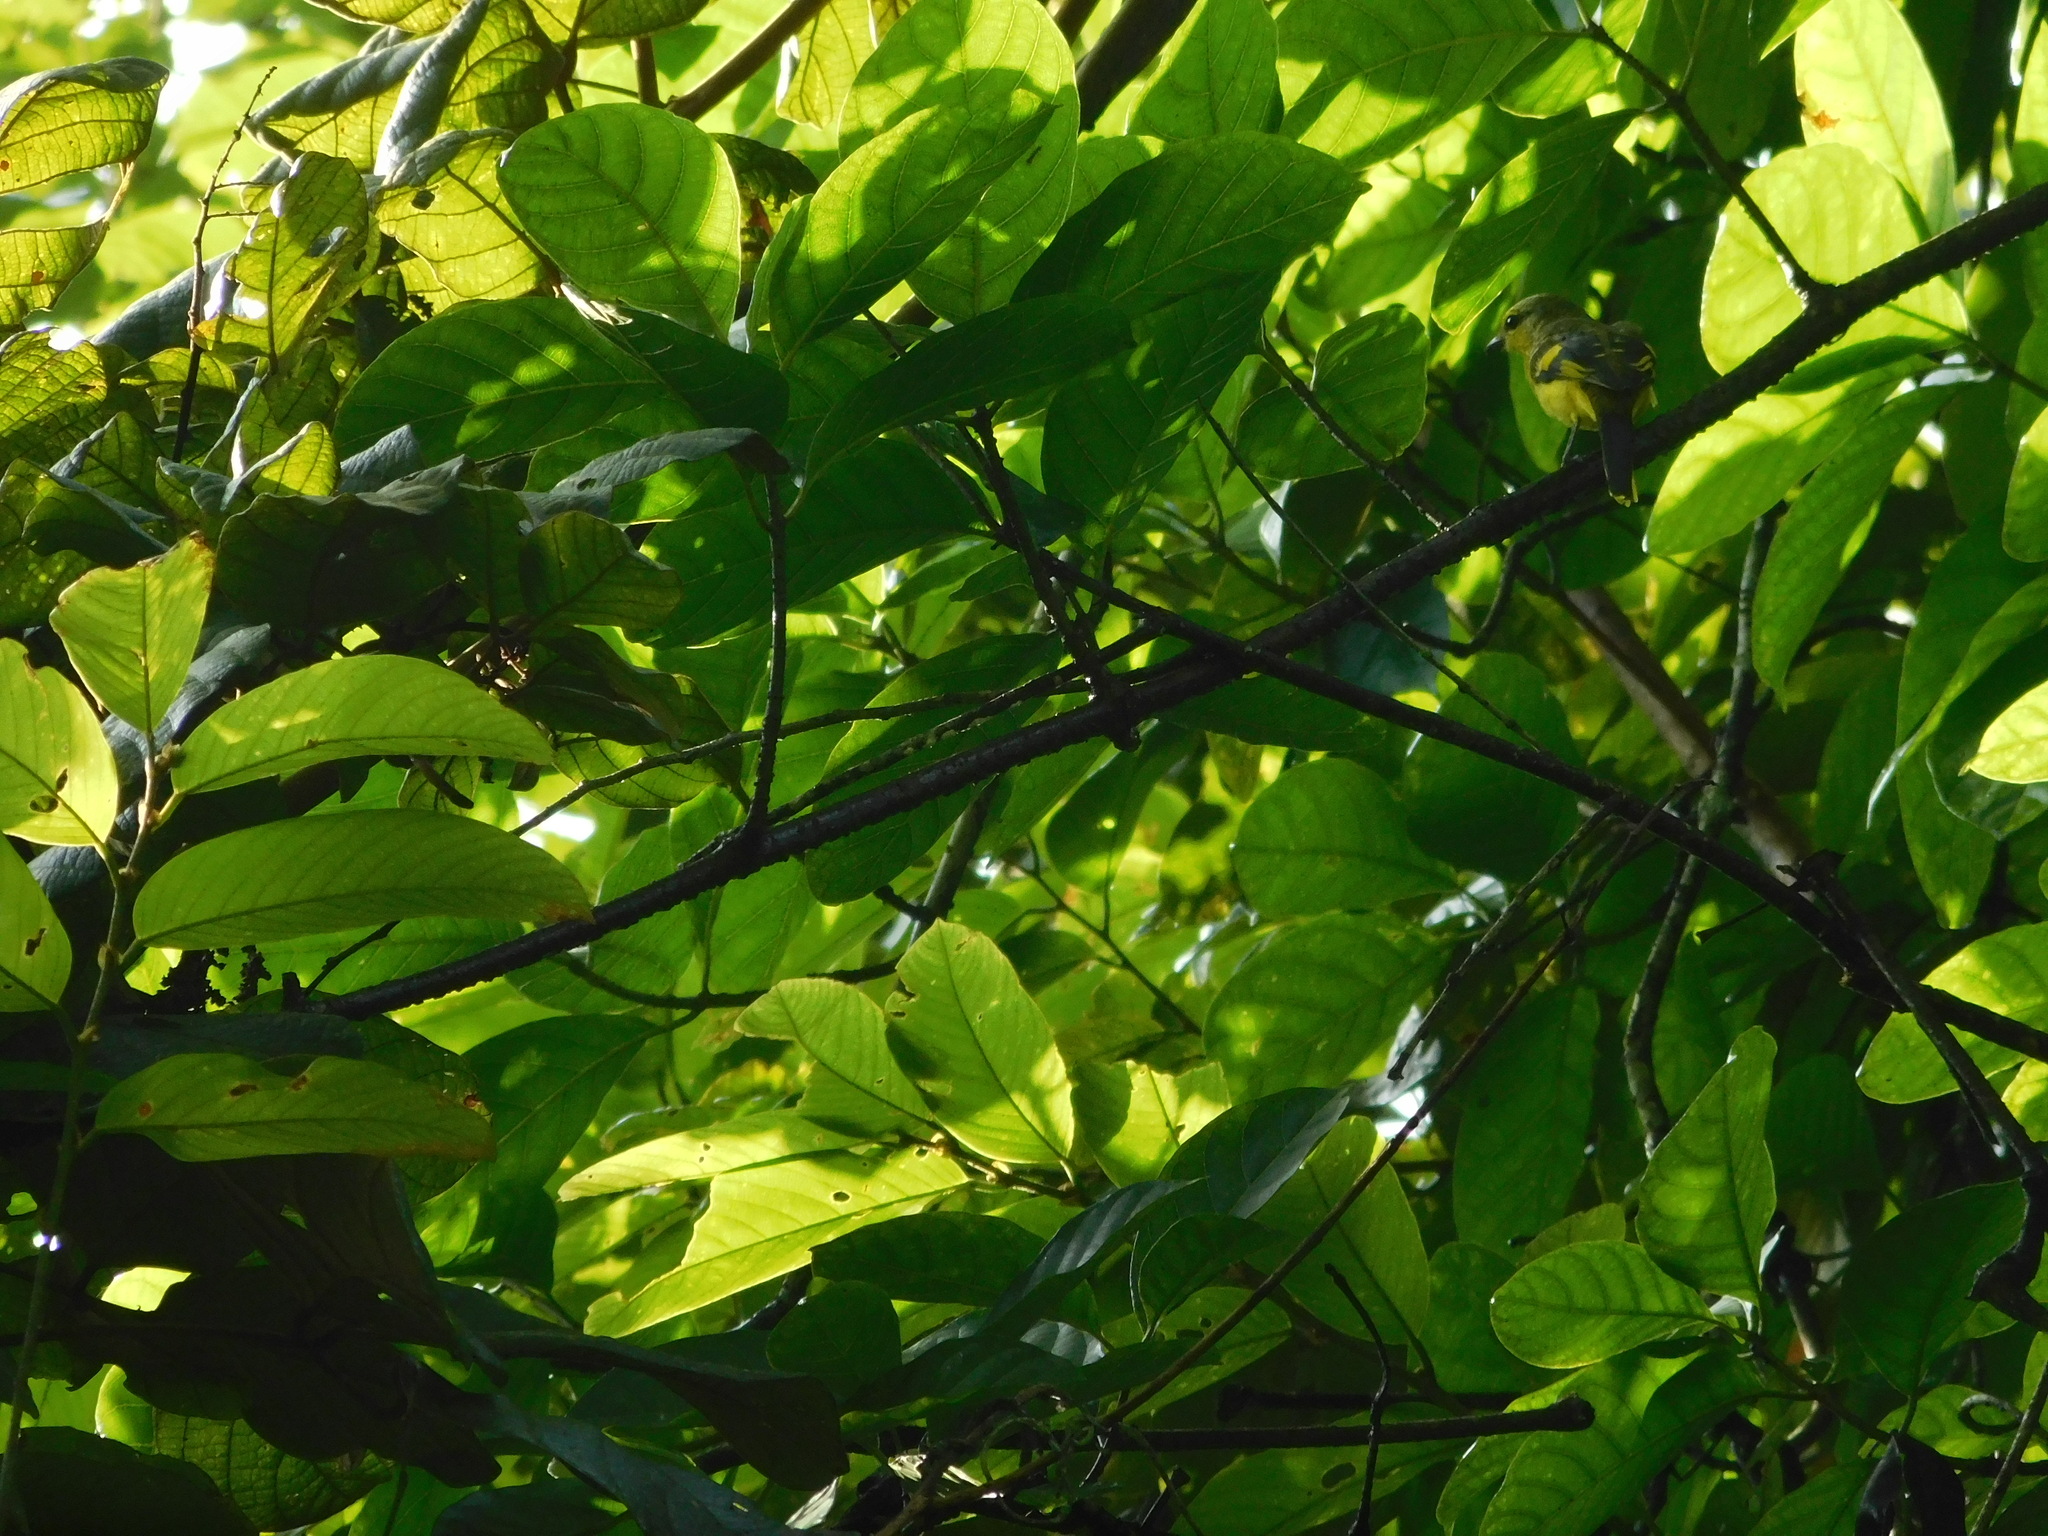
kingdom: Animalia
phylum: Chordata
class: Aves
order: Passeriformes
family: Campephagidae
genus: Pericrocotus
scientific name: Pericrocotus speciosus
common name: Scarlet minivet
